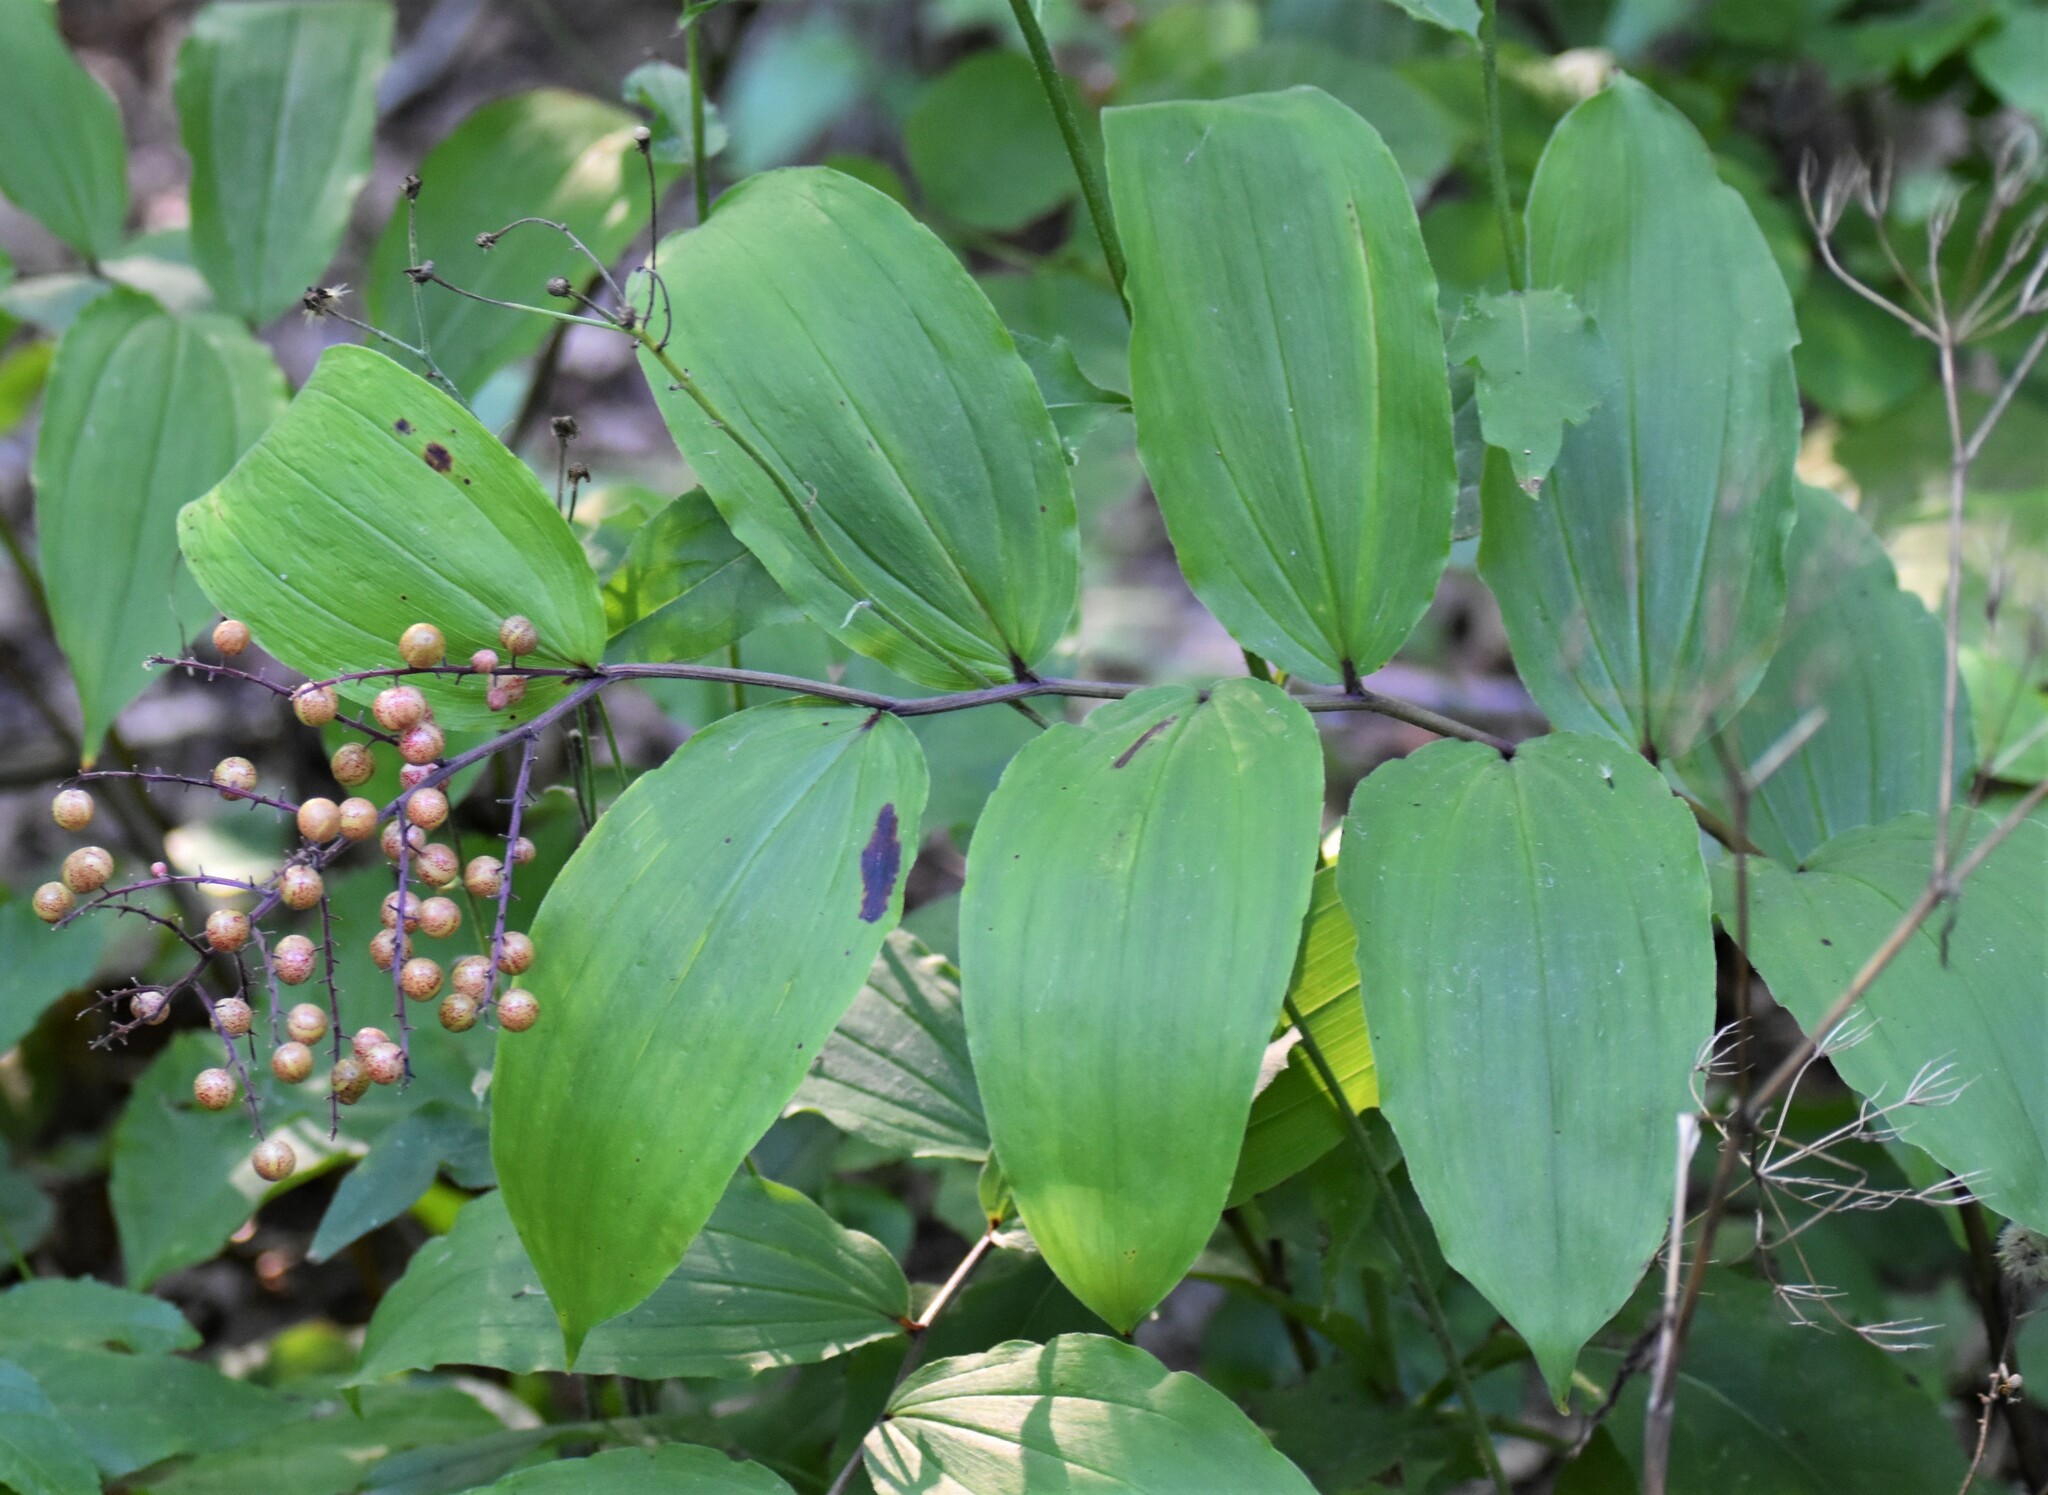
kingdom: Plantae
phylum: Tracheophyta
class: Liliopsida
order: Asparagales
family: Asparagaceae
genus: Maianthemum
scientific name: Maianthemum racemosum
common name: False spikenard
